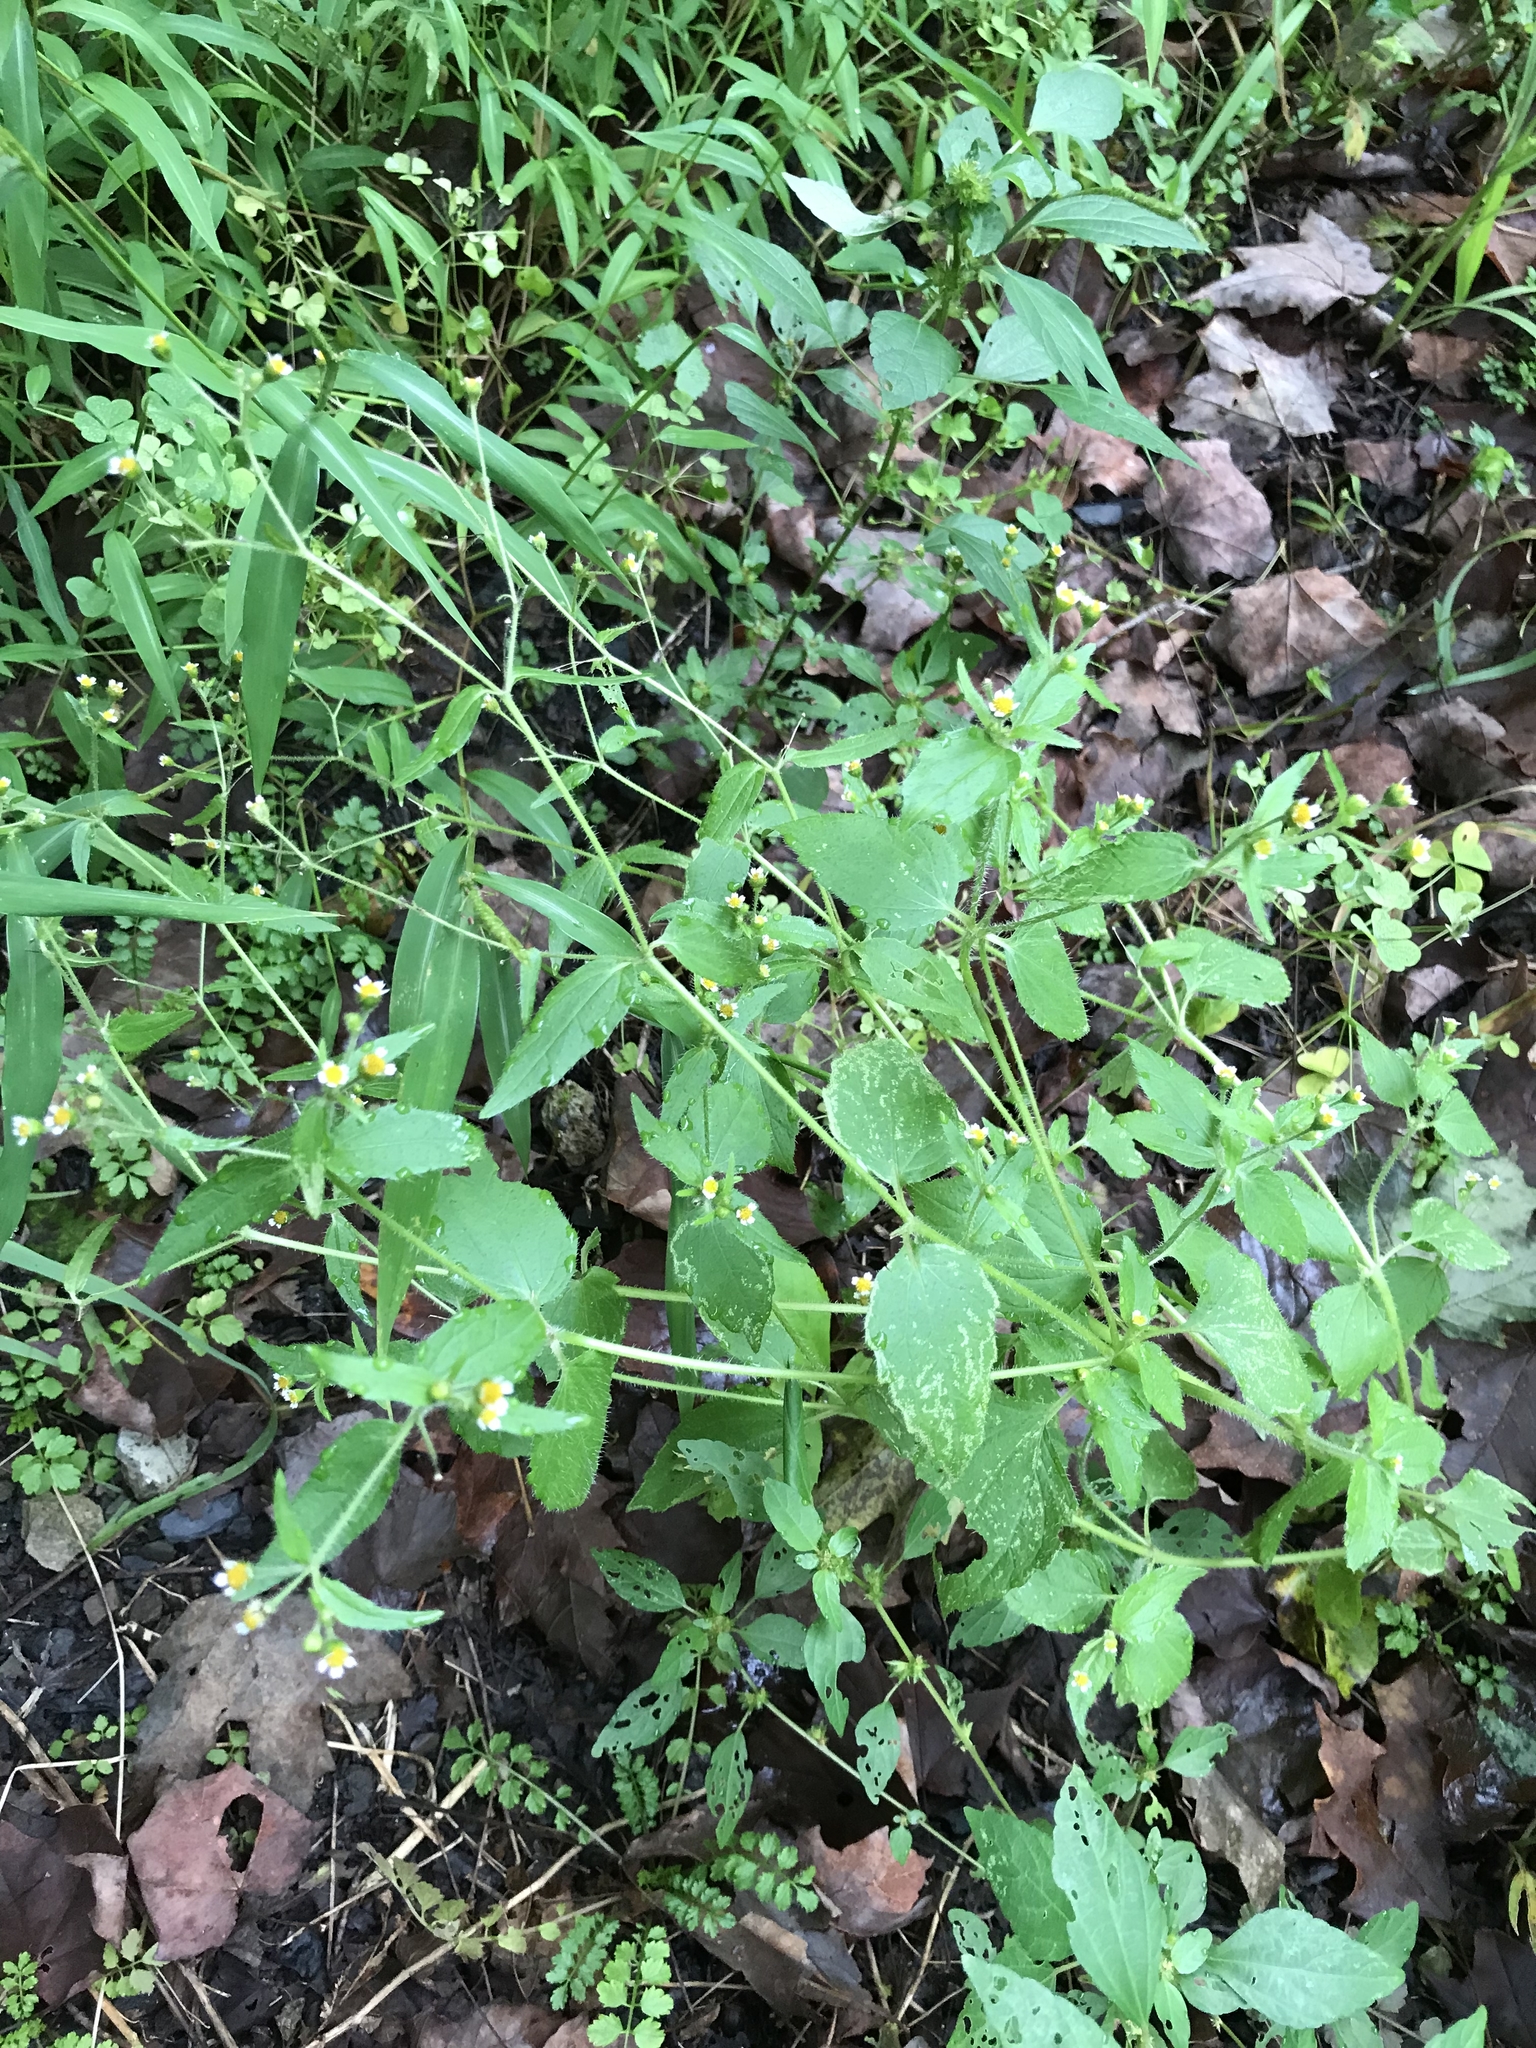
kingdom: Plantae
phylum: Tracheophyta
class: Magnoliopsida
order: Asterales
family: Asteraceae
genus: Galinsoga
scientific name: Galinsoga quadriradiata
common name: Shaggy soldier
